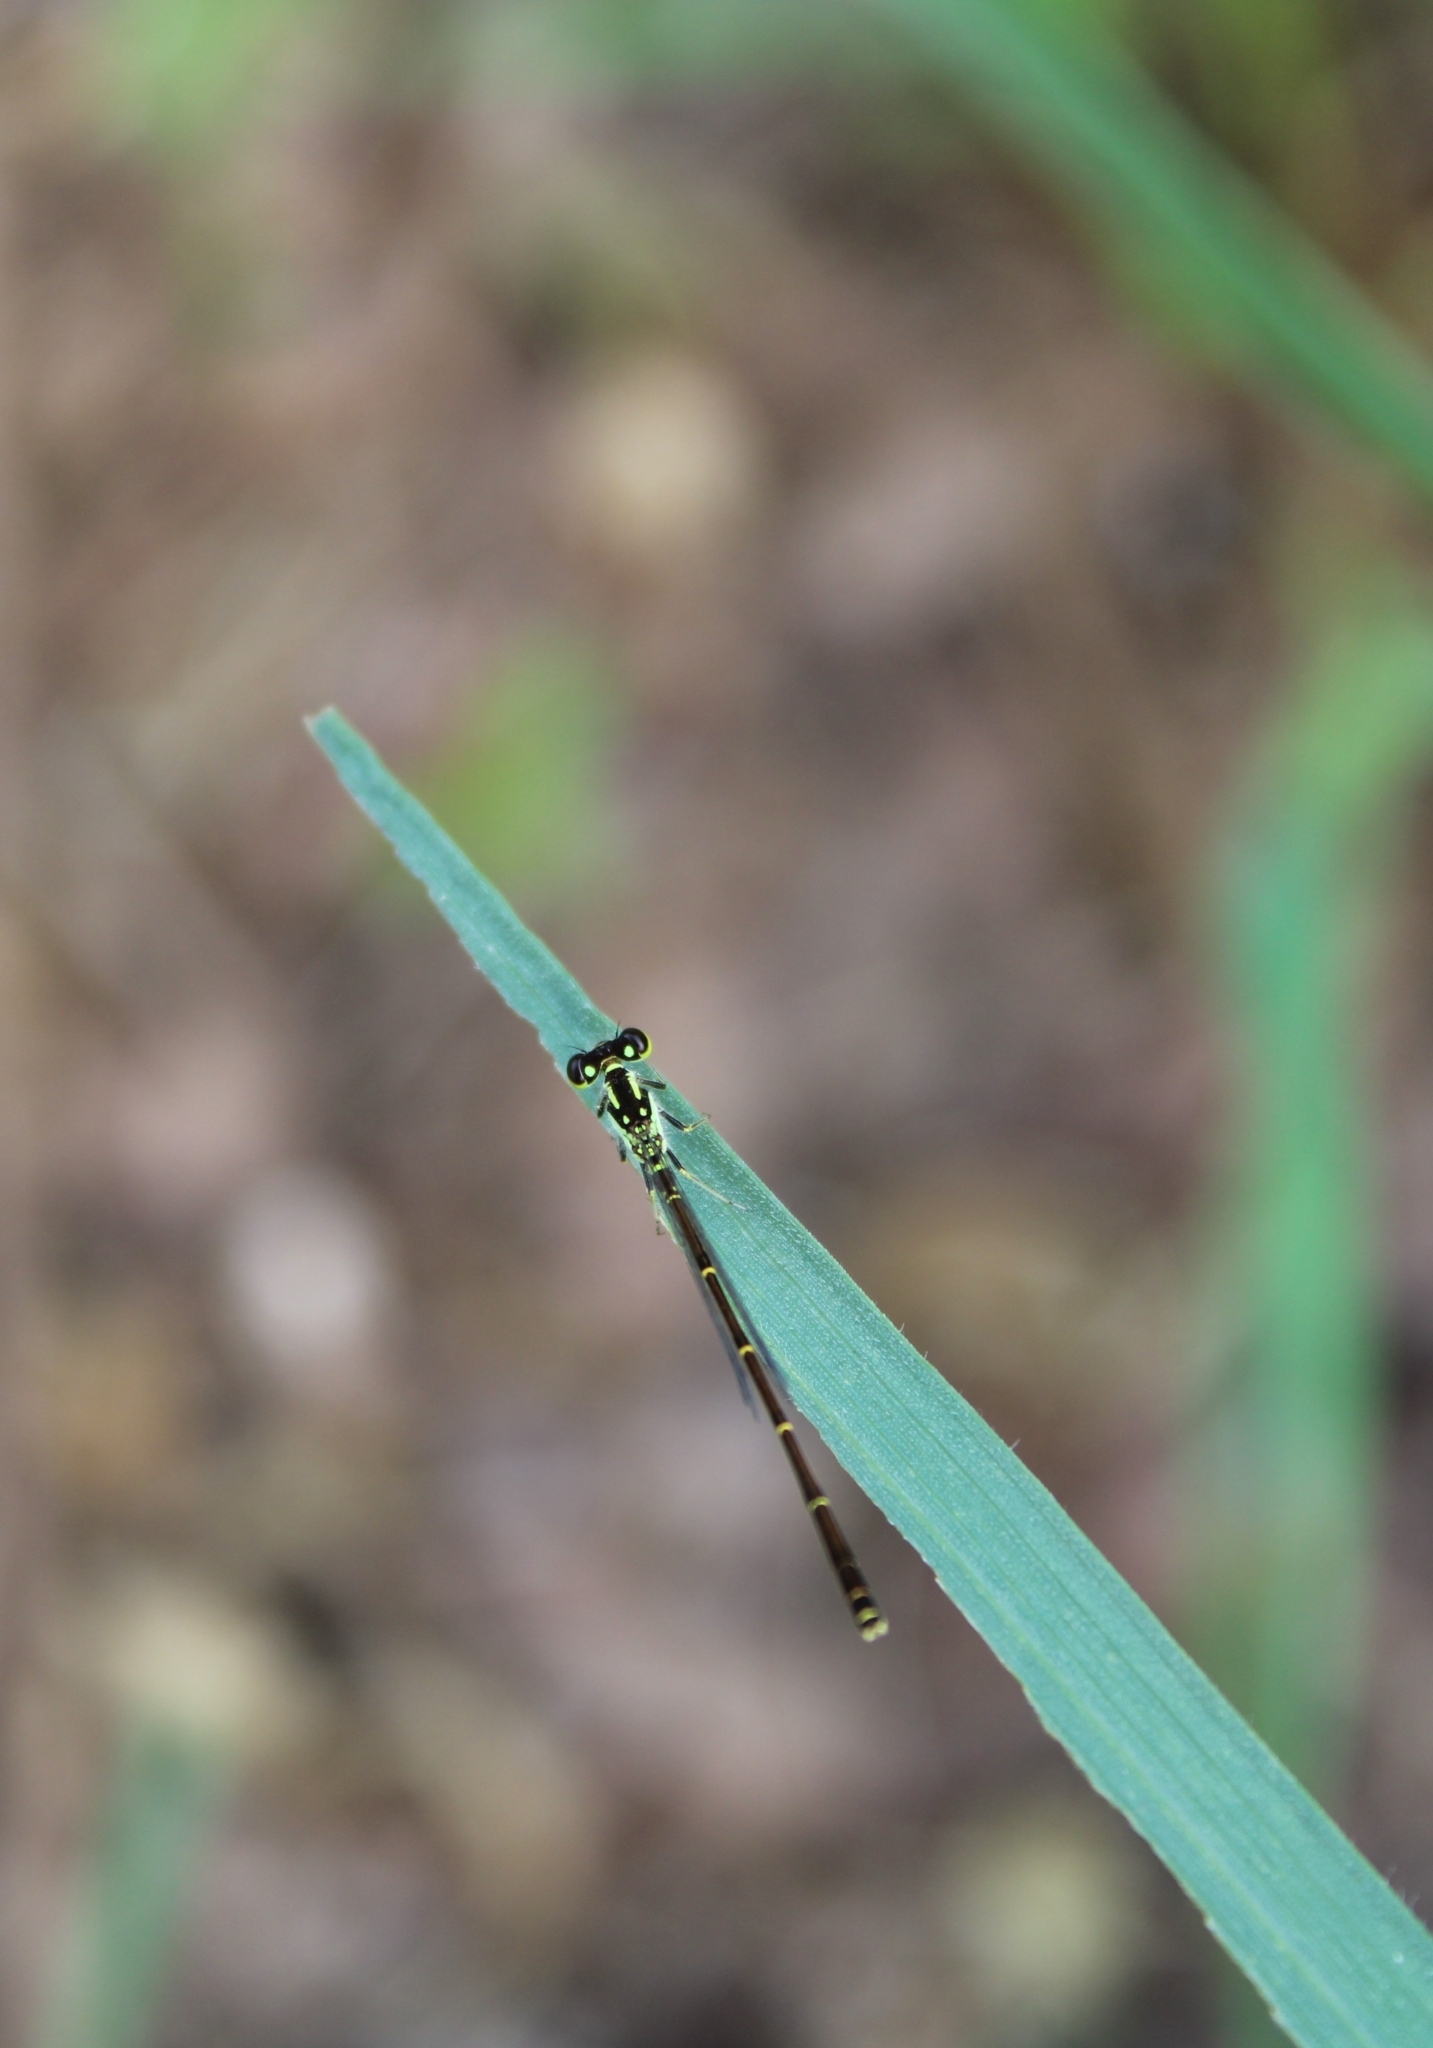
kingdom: Animalia
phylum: Arthropoda
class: Insecta
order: Odonata
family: Coenagrionidae
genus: Ischnura
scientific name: Ischnura posita
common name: Fragile forktail
